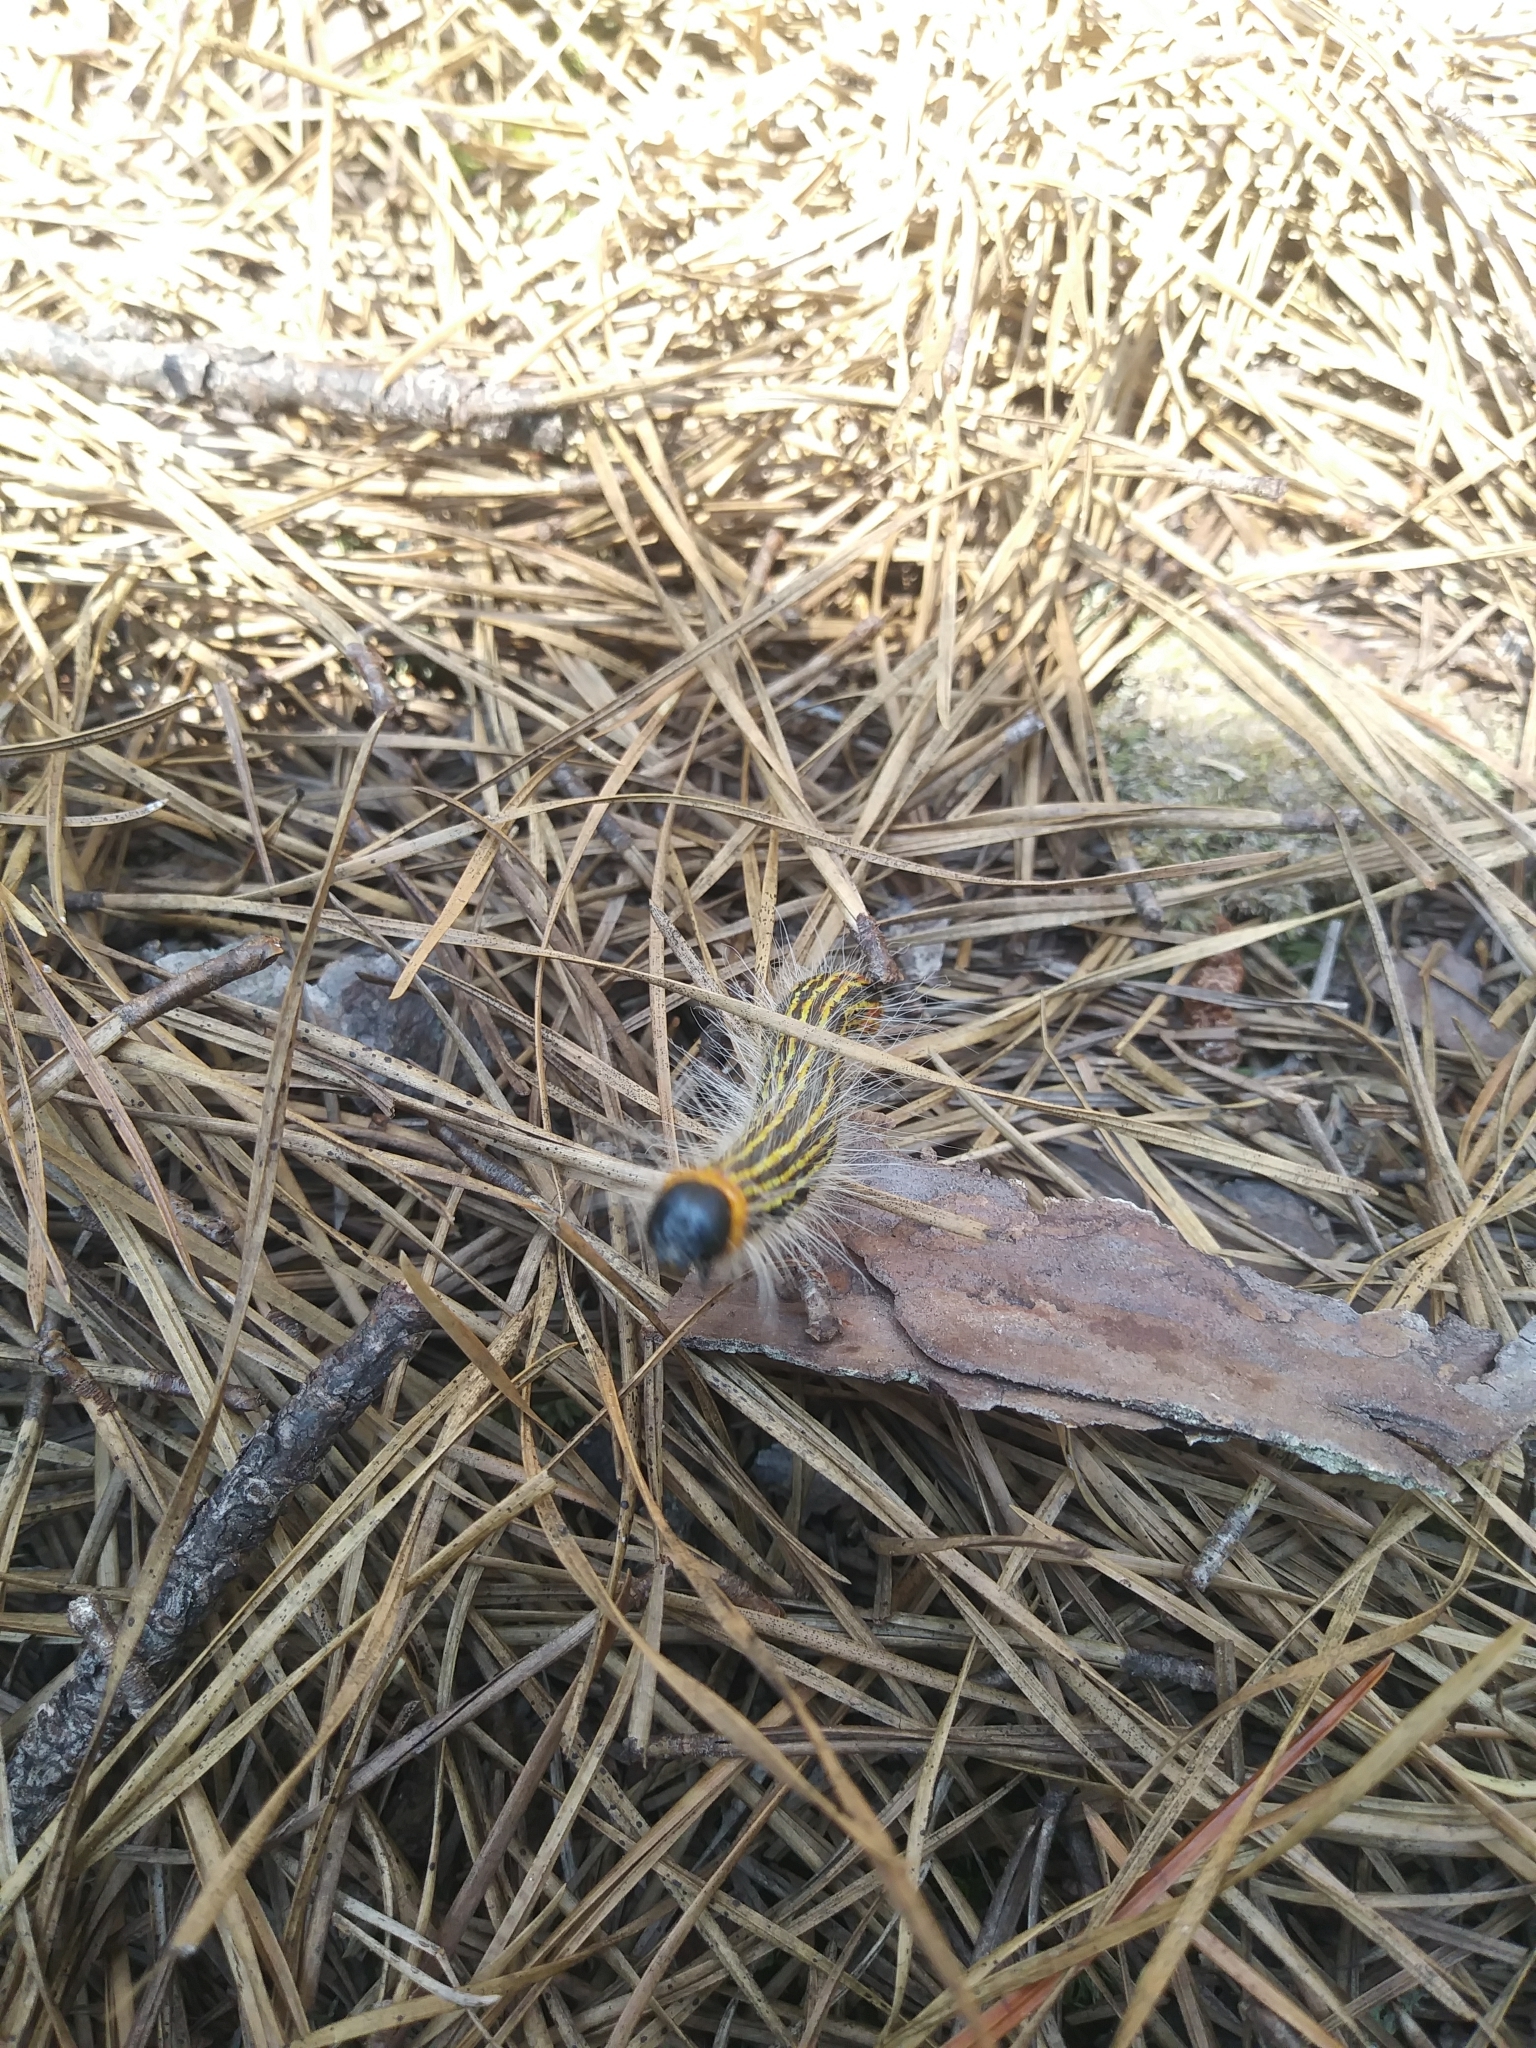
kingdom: Animalia
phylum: Arthropoda
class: Insecta
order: Lepidoptera
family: Notodontidae
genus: Datana
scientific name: Datana ministra
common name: Yellow-necked caterpillar moth
